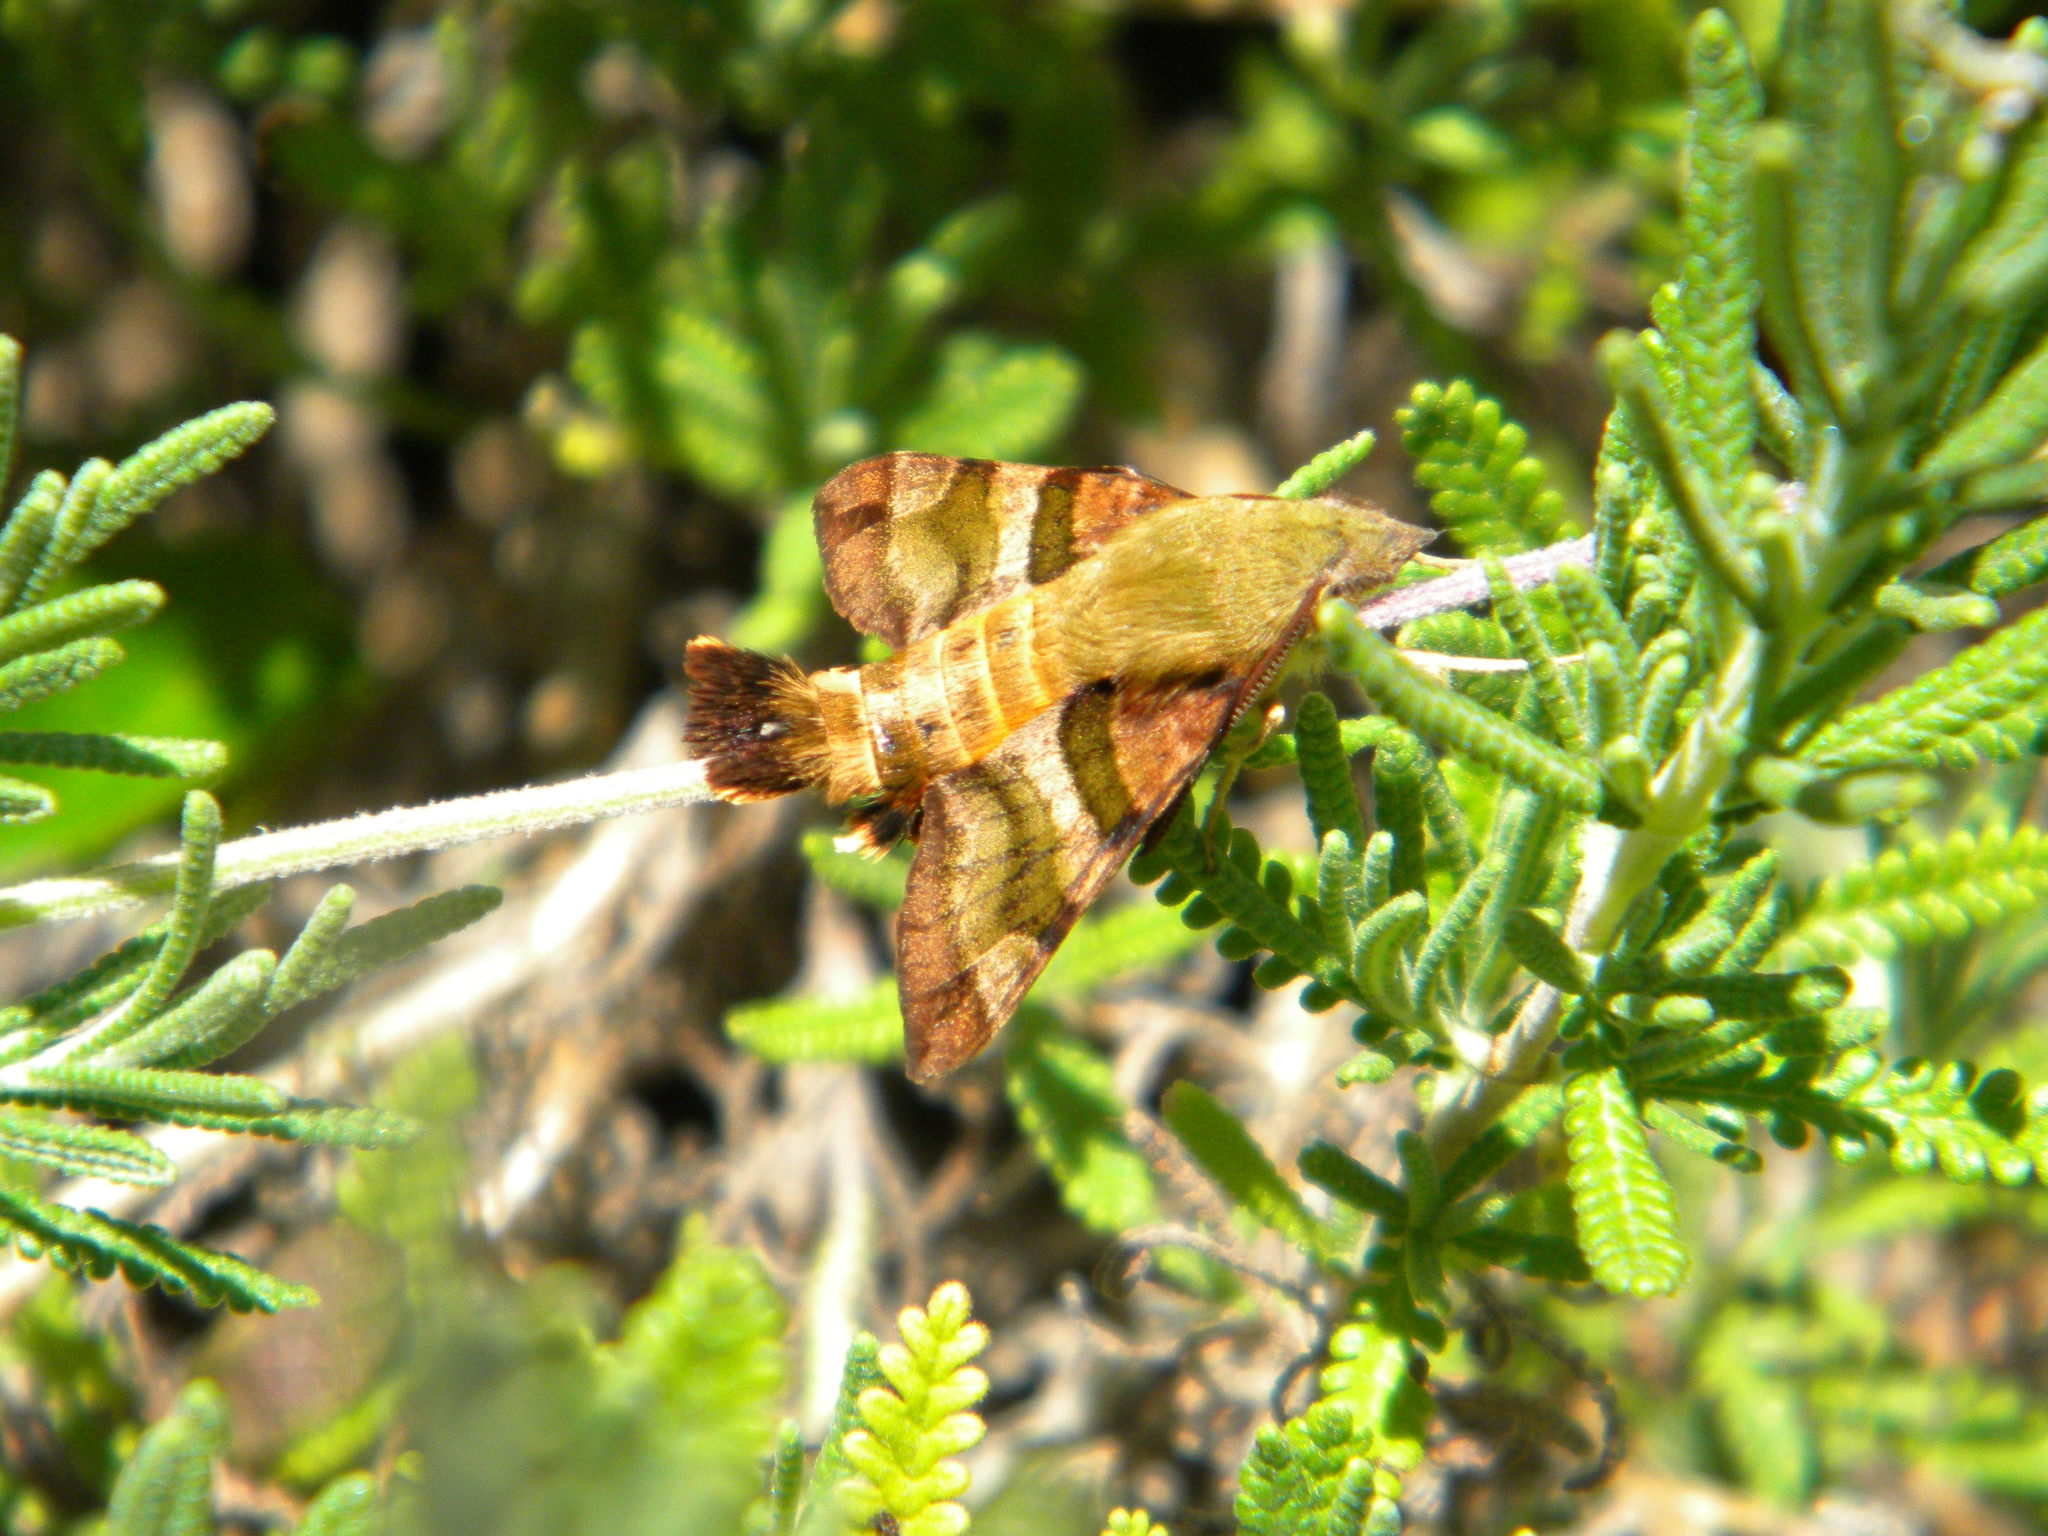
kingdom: Animalia
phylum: Arthropoda
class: Insecta
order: Lepidoptera
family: Sphingidae
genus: Macroglossum
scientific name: Macroglossum trochilus
